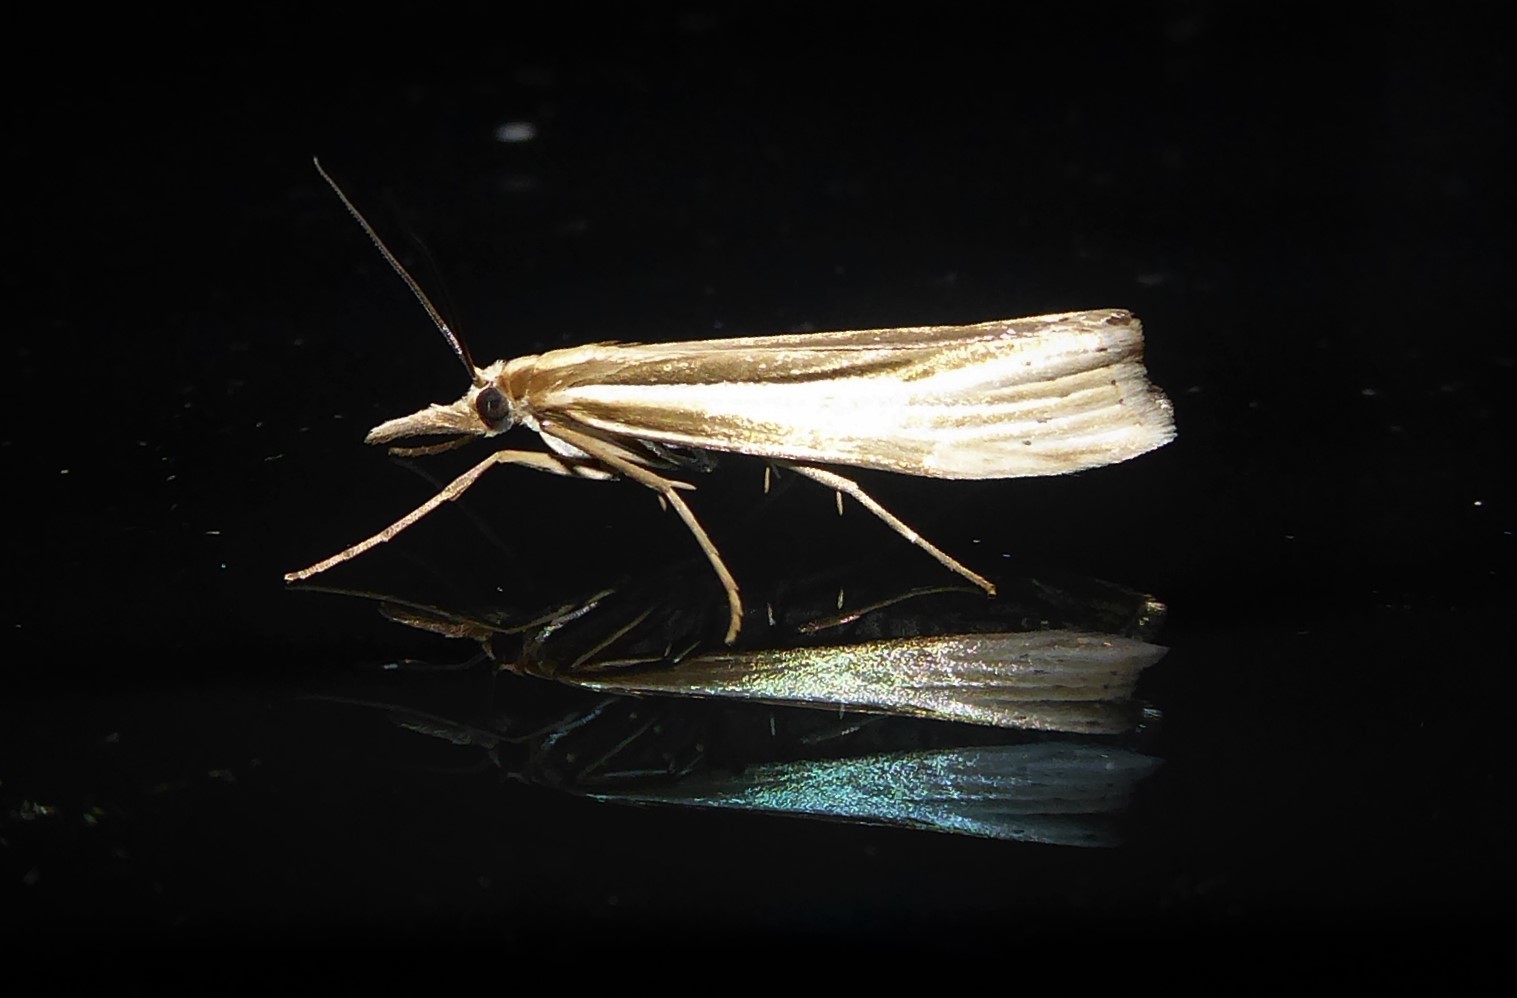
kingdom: Animalia
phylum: Arthropoda
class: Insecta
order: Lepidoptera
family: Crambidae
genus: Orocrambus
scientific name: Orocrambus ramosellus
